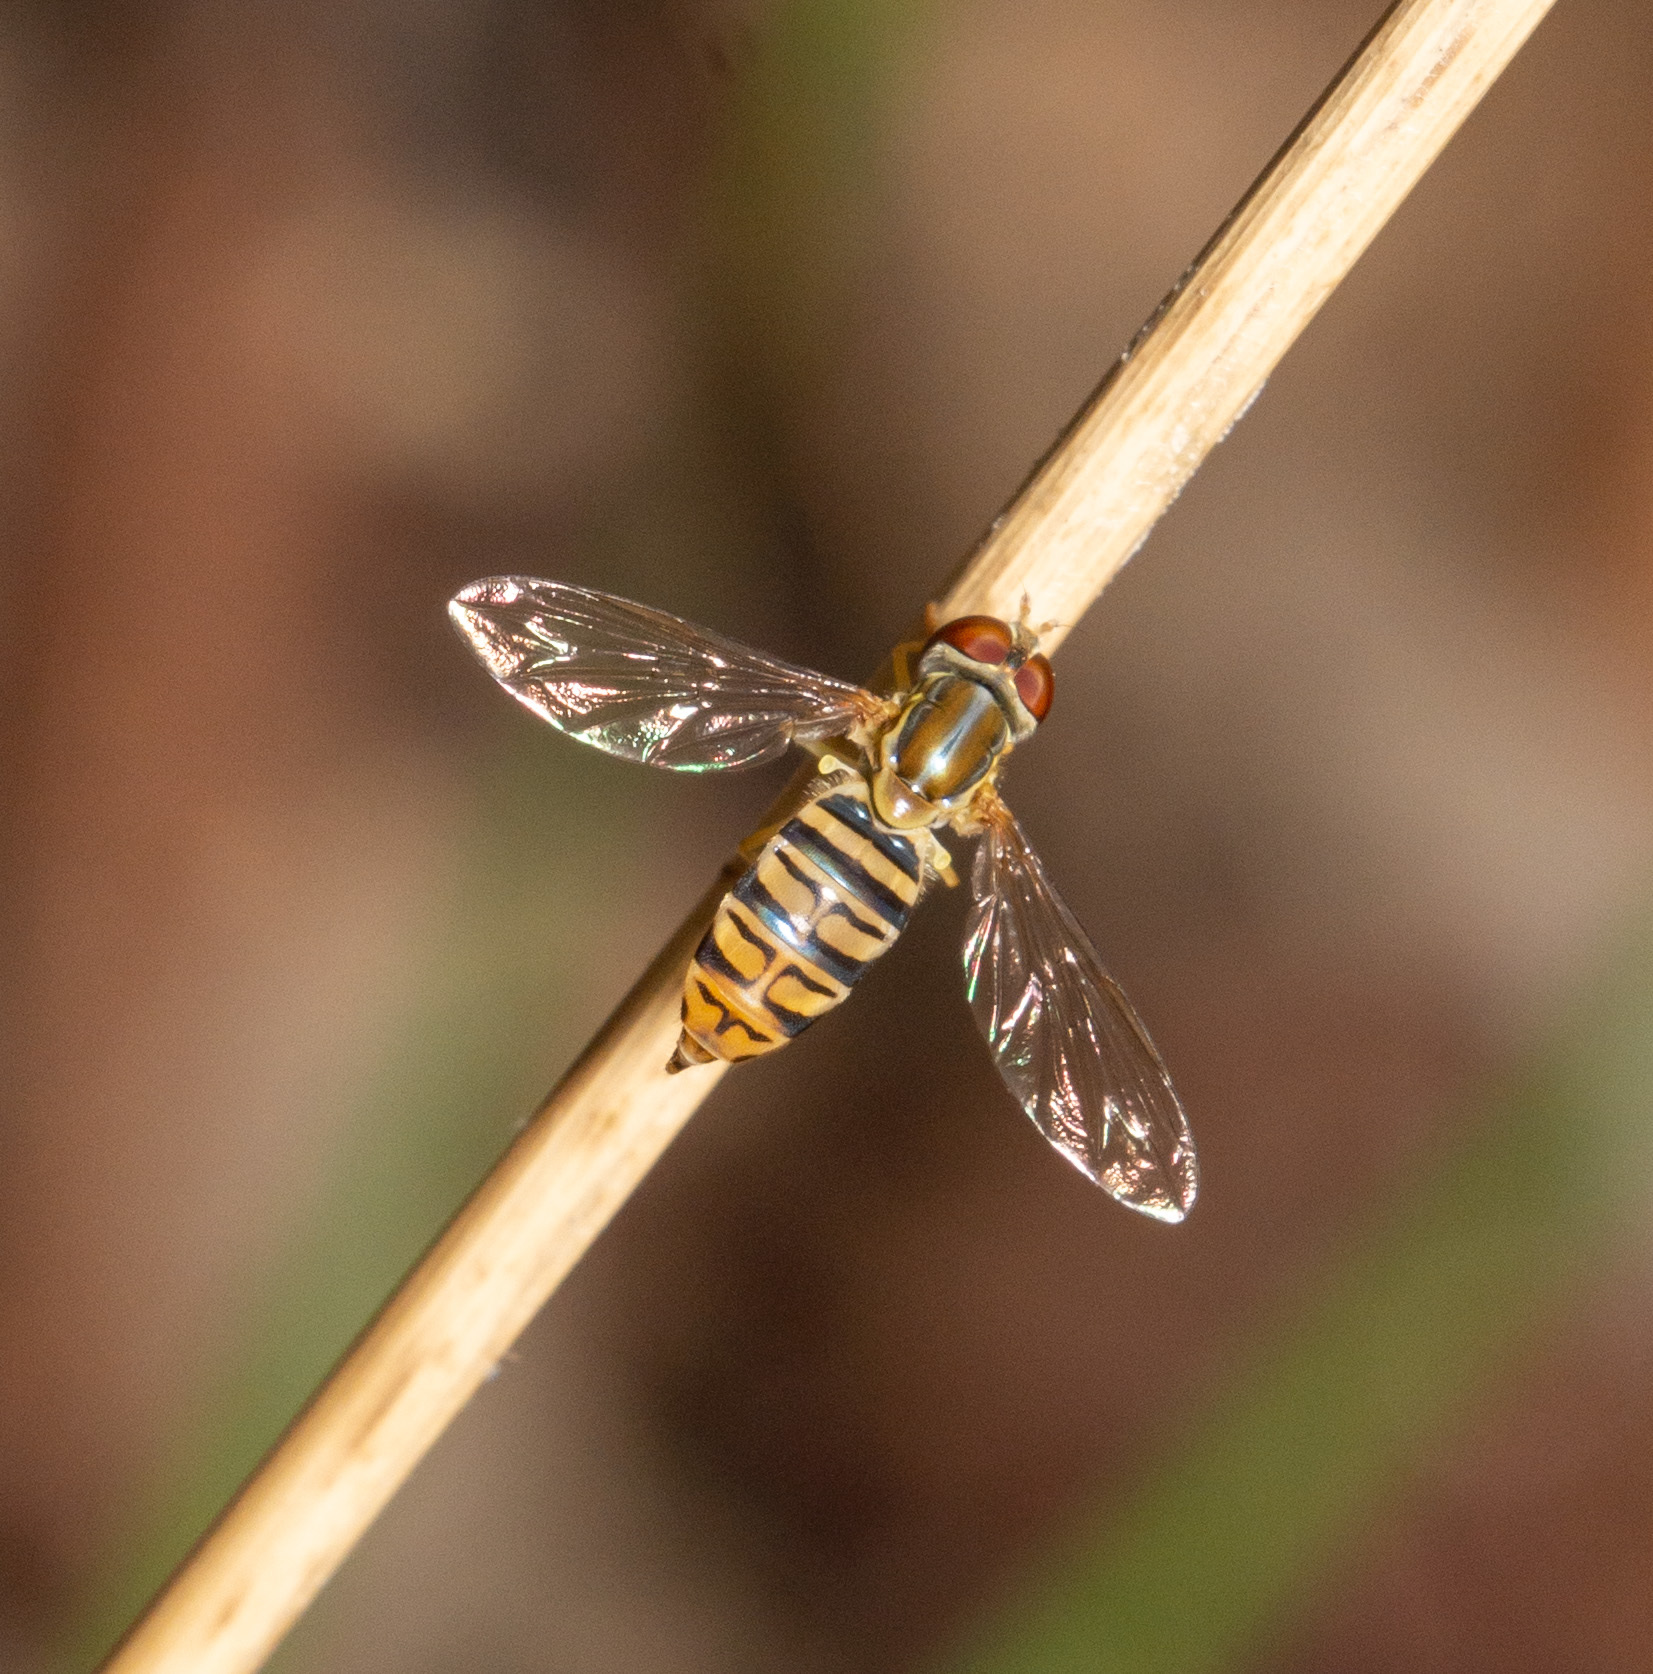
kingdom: Animalia
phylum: Arthropoda
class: Insecta
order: Diptera
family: Syrphidae
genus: Toxomerus
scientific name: Toxomerus politus
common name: Maize calligrapher
